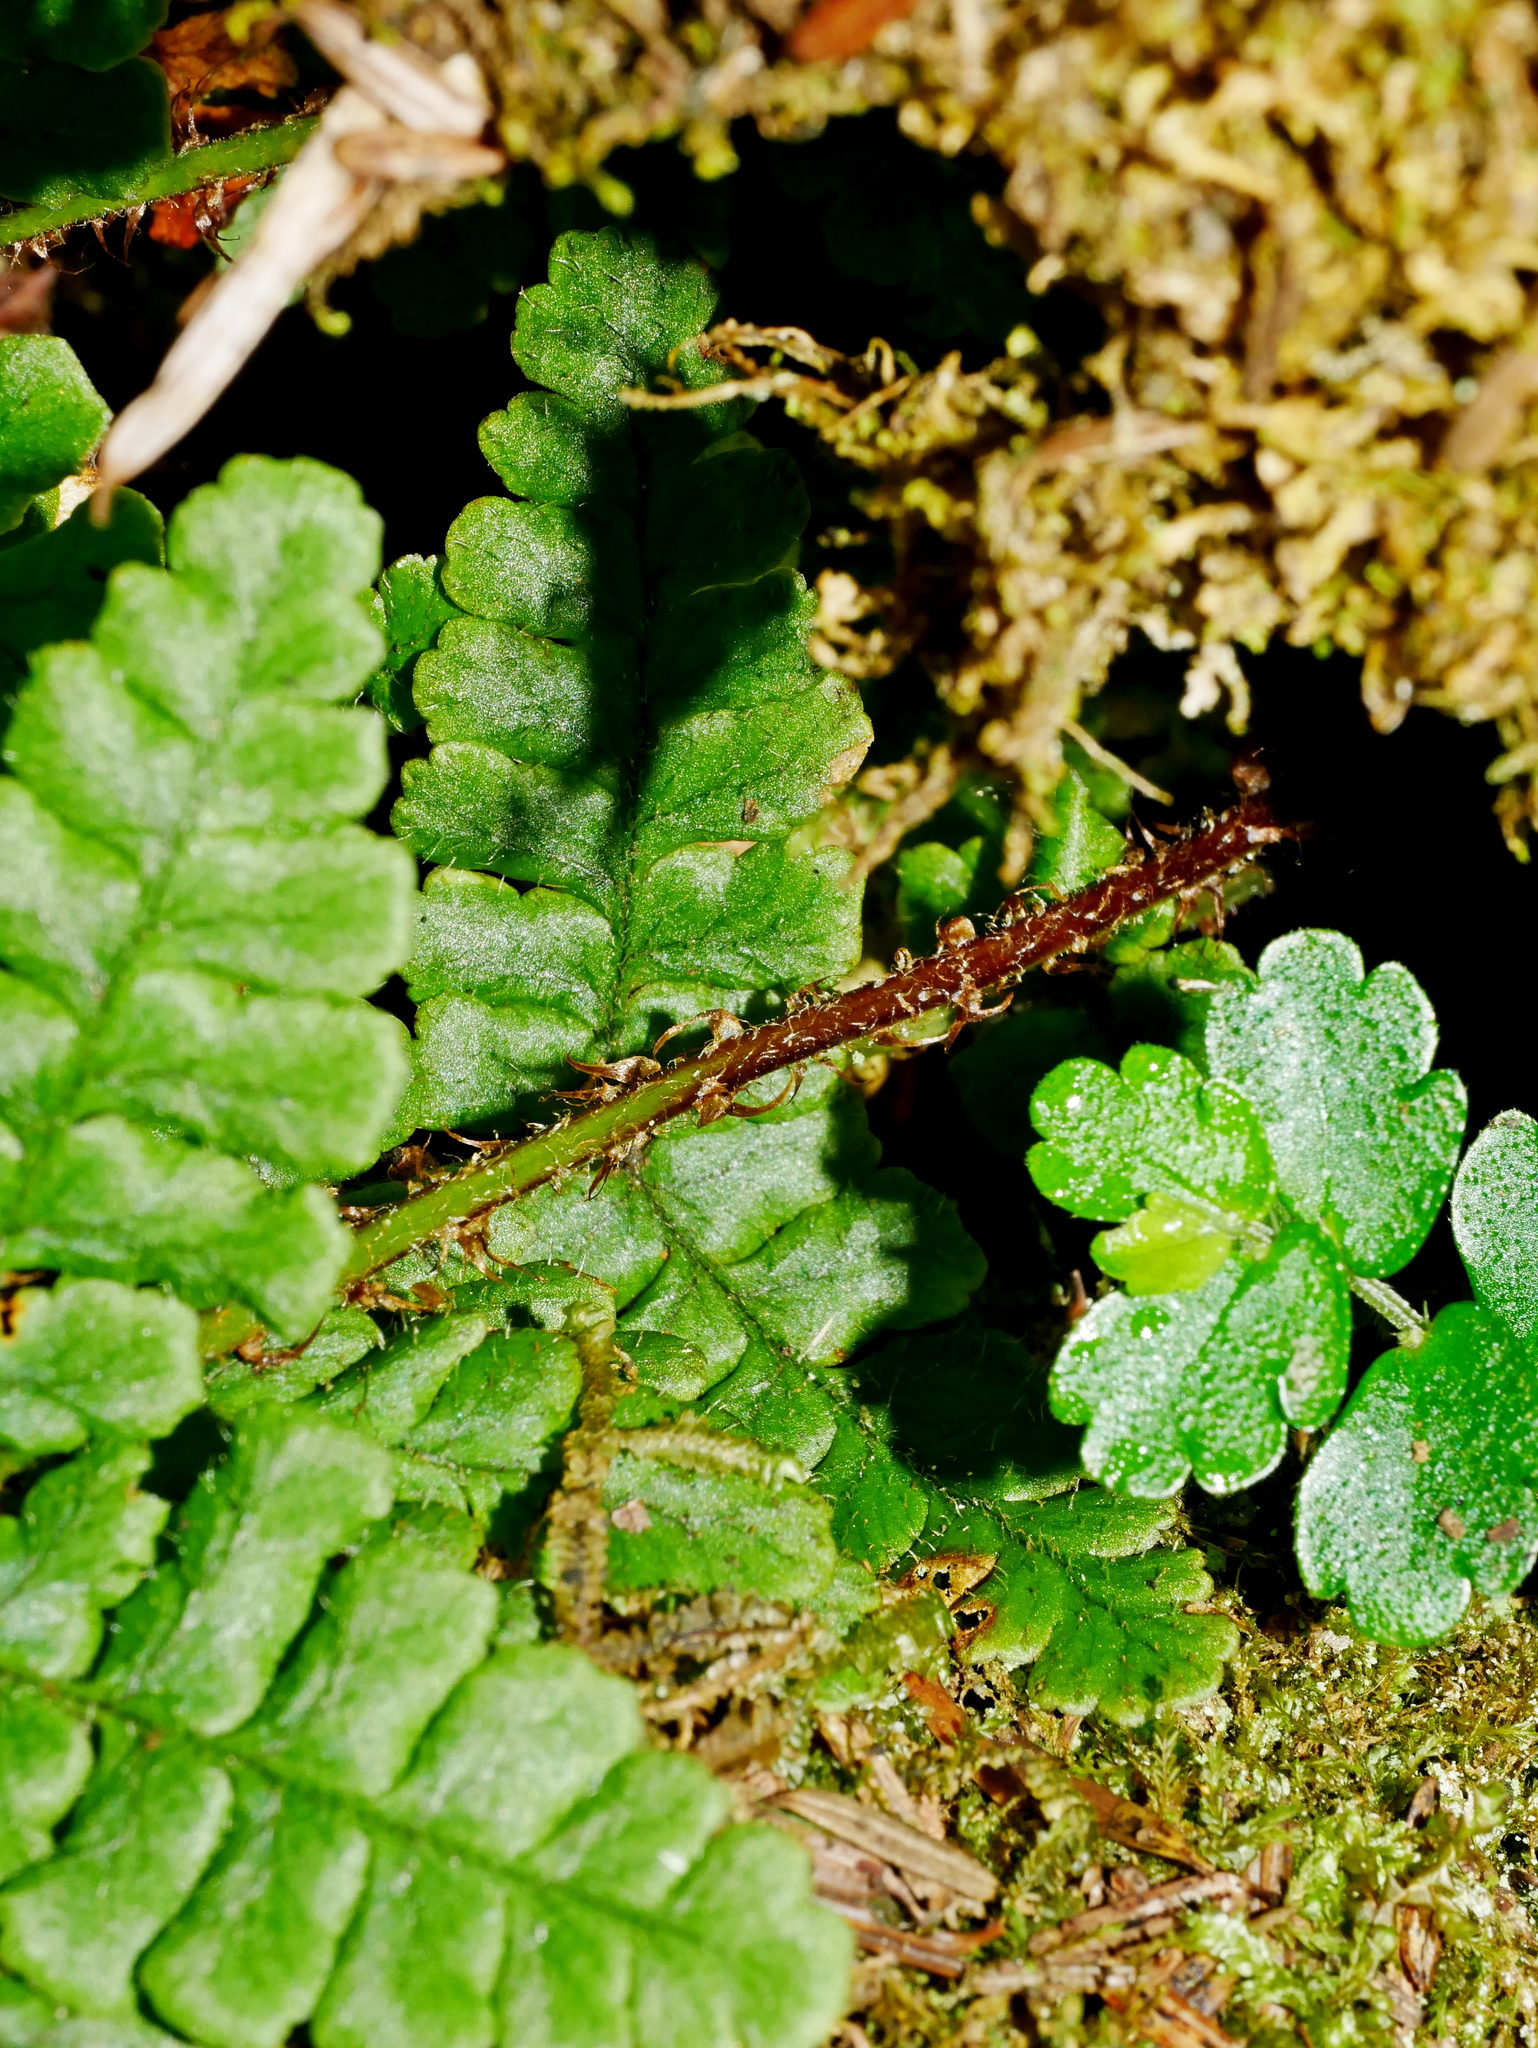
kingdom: Plantae
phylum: Tracheophyta
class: Polypodiopsida
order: Polypodiales
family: Dryopteridaceae
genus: Dryopteris
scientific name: Dryopteris transmorrisonensis
